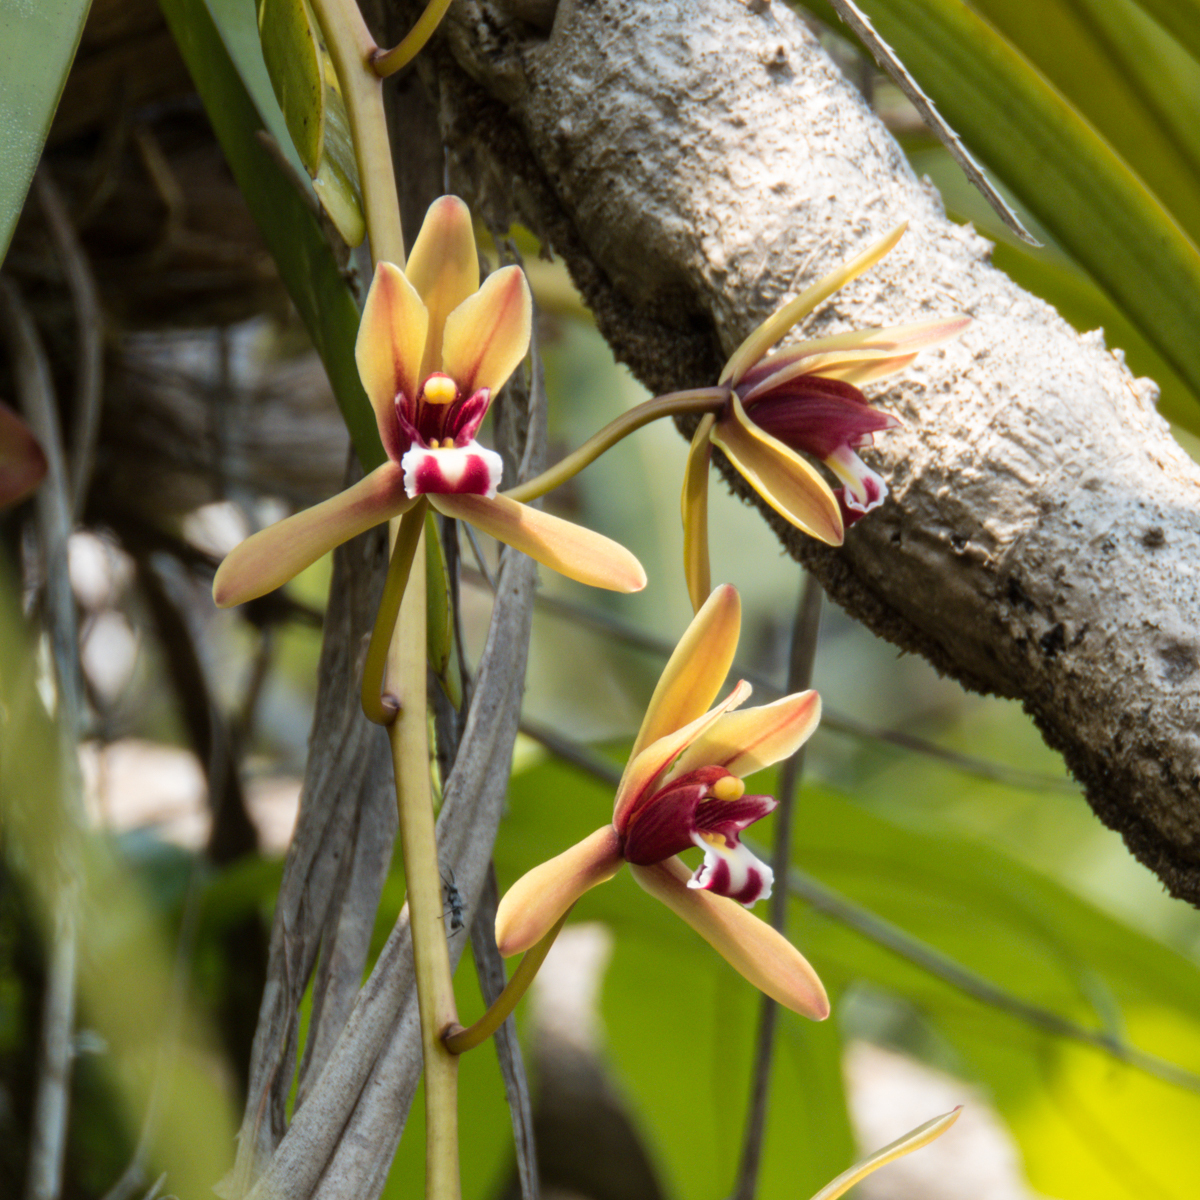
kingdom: Plantae
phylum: Tracheophyta
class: Liliopsida
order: Asparagales
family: Orchidaceae
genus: Cymbidium
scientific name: Cymbidium finlaysonianum
